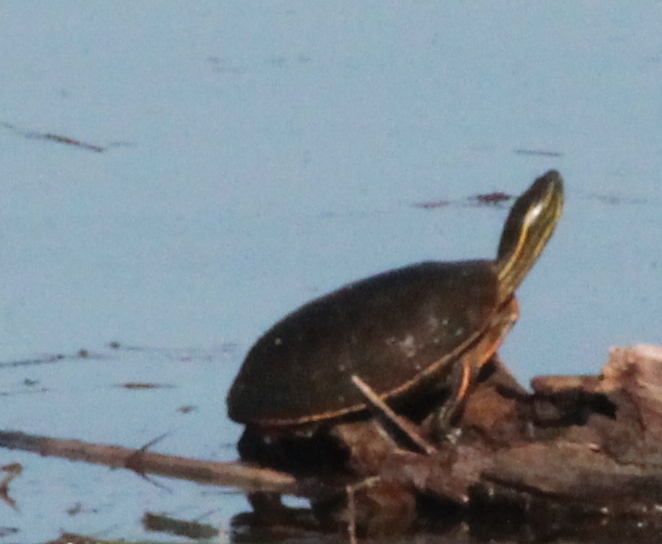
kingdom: Animalia
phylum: Chordata
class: Testudines
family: Emydidae
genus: Chrysemys
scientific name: Chrysemys picta
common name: Painted turtle
